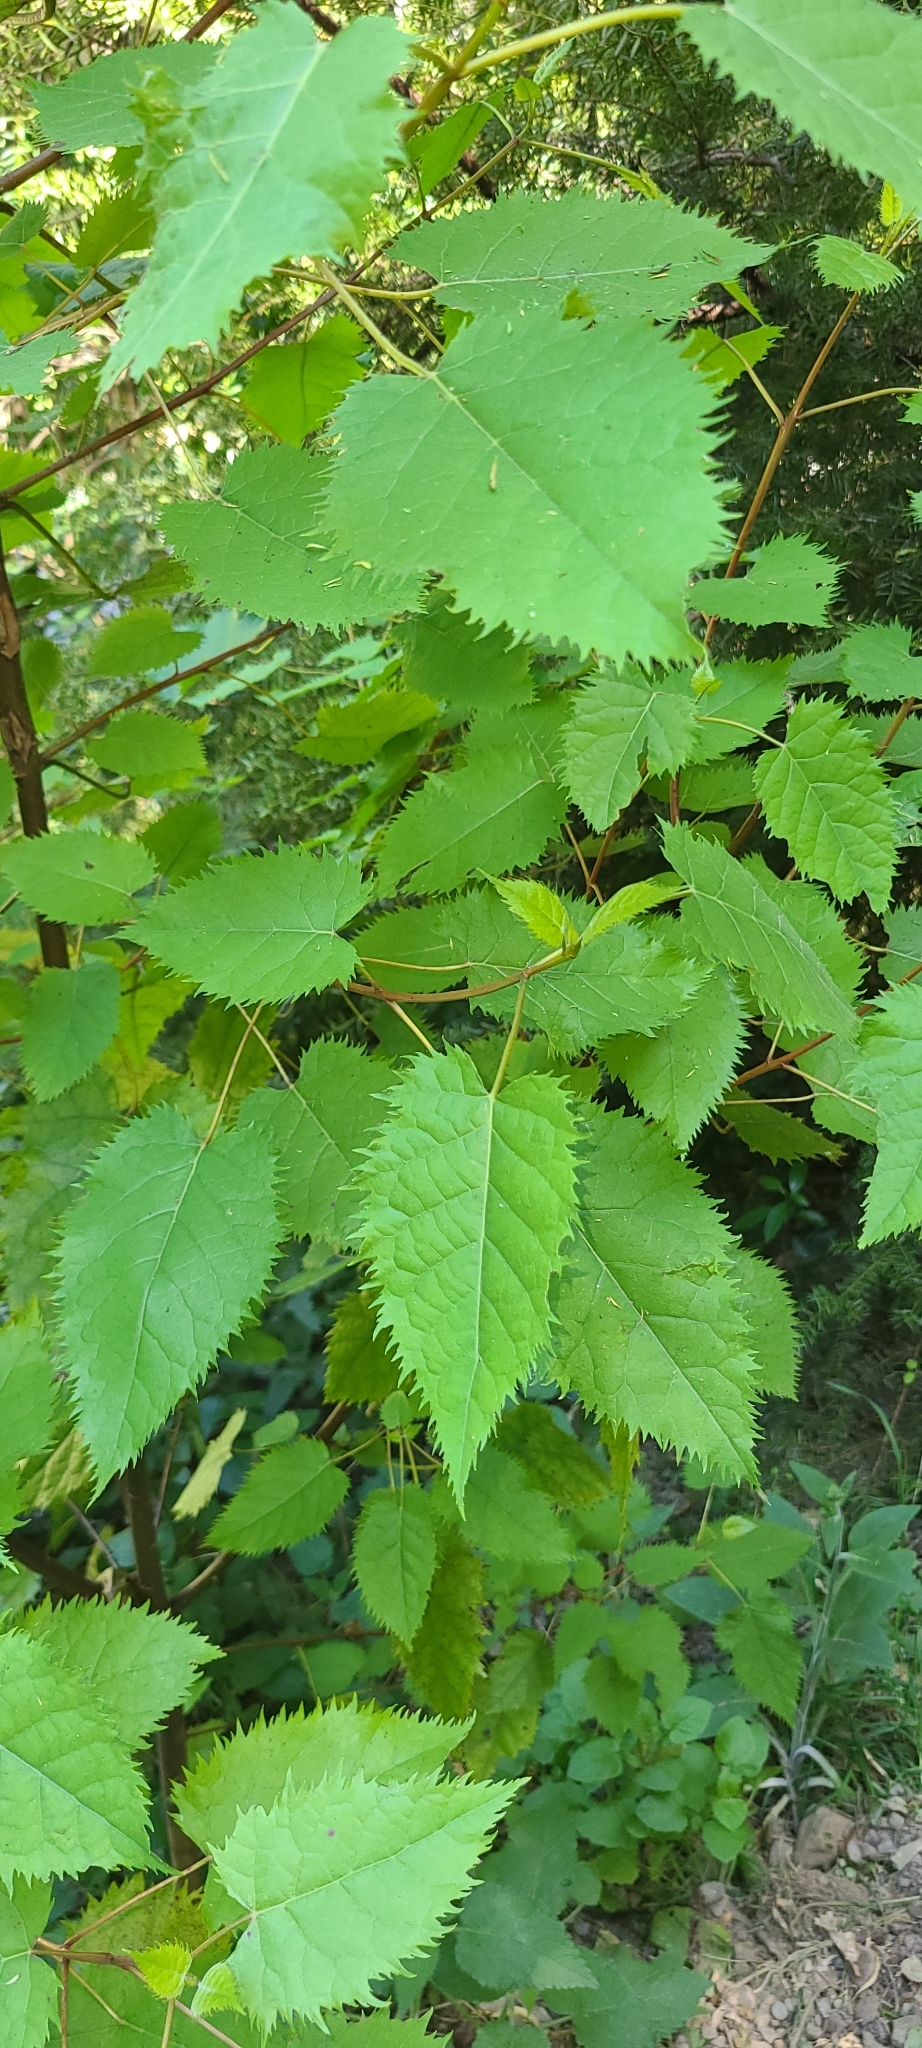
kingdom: Plantae
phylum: Tracheophyta
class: Magnoliopsida
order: Oxalidales
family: Elaeocarpaceae
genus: Aristotelia
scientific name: Aristotelia serrata
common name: New zealand wineberry
